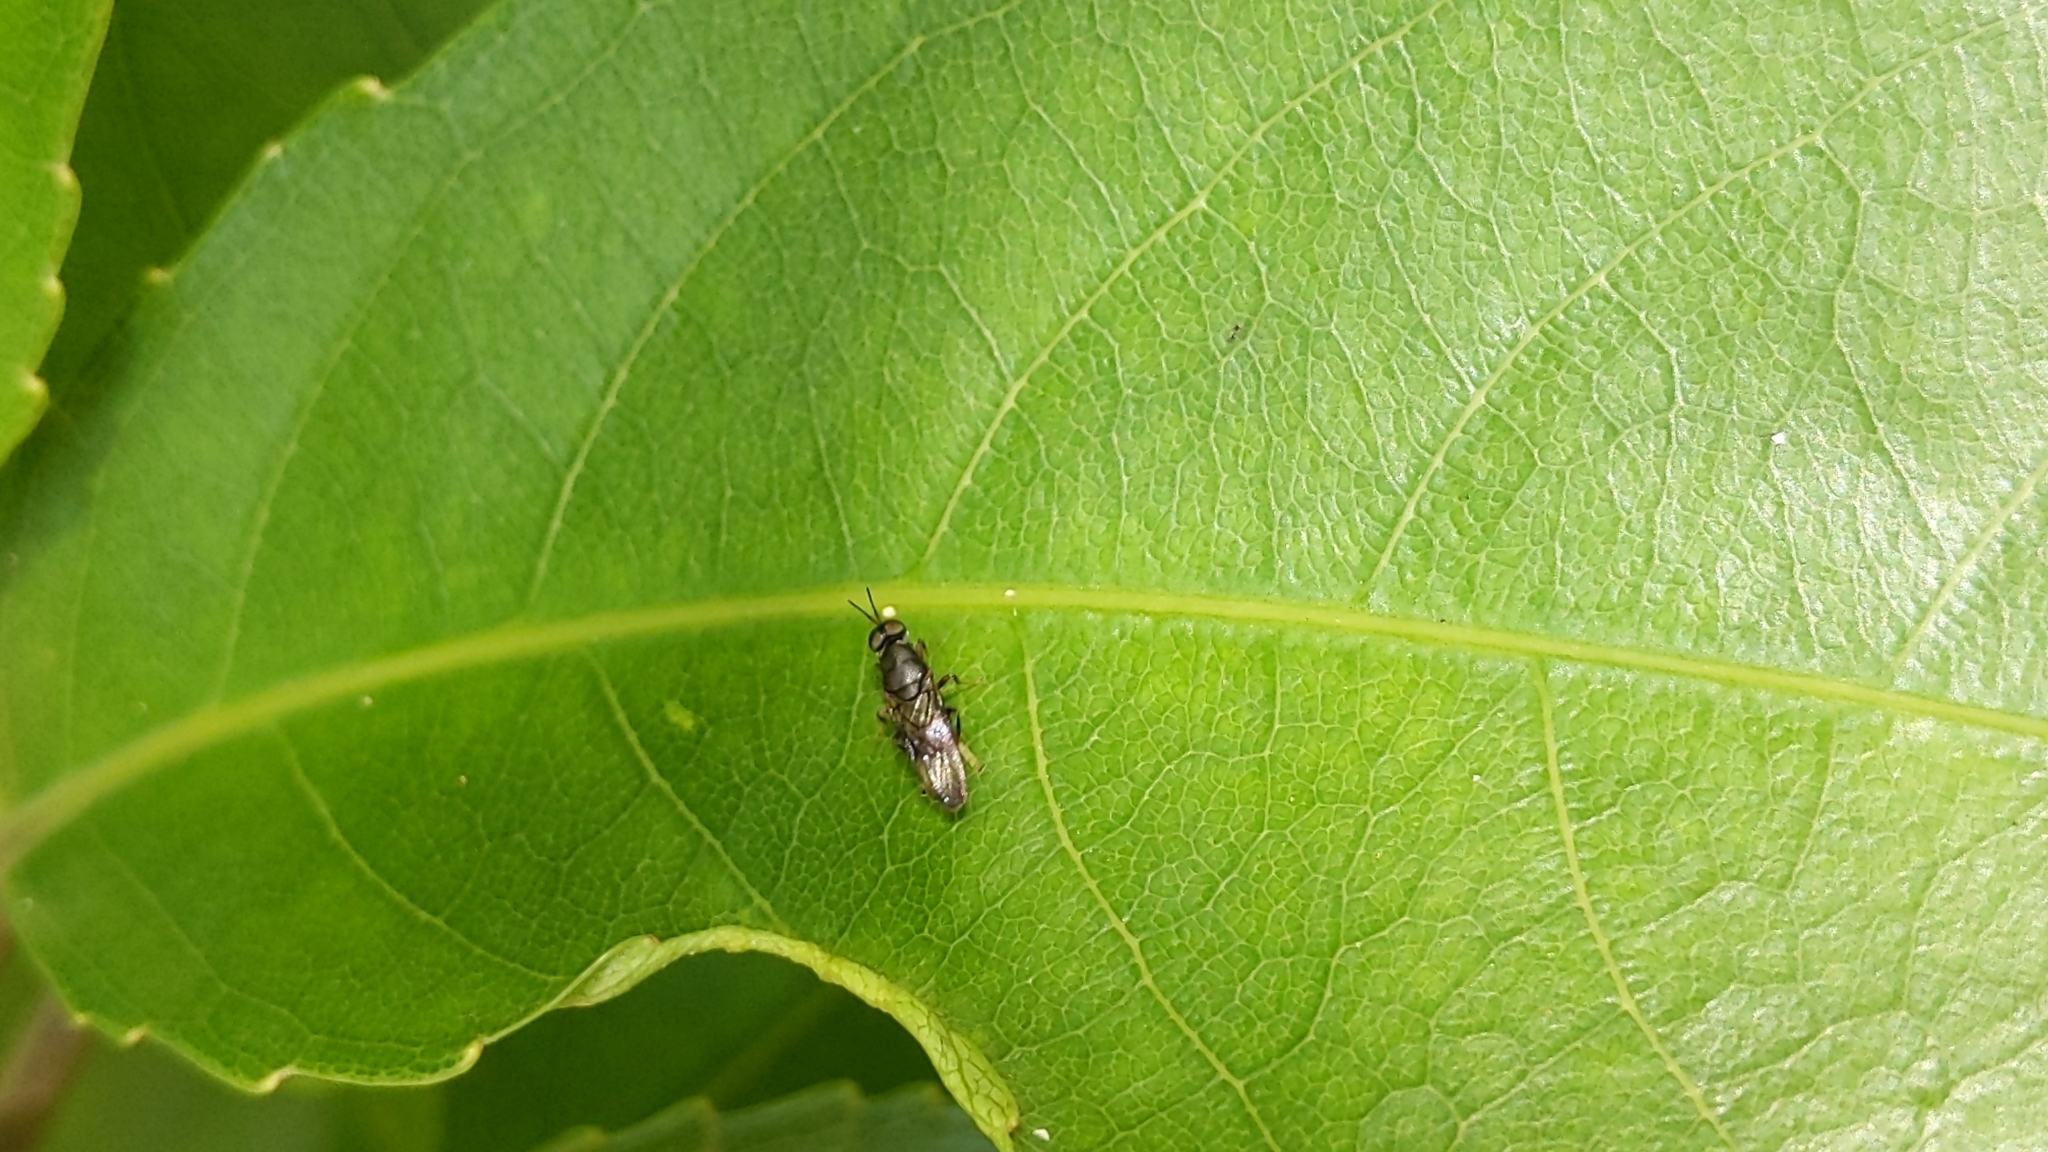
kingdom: Animalia
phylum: Arthropoda
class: Insecta
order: Diptera
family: Stratiomyidae
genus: Dysbiota
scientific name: Dysbiota peregrina
